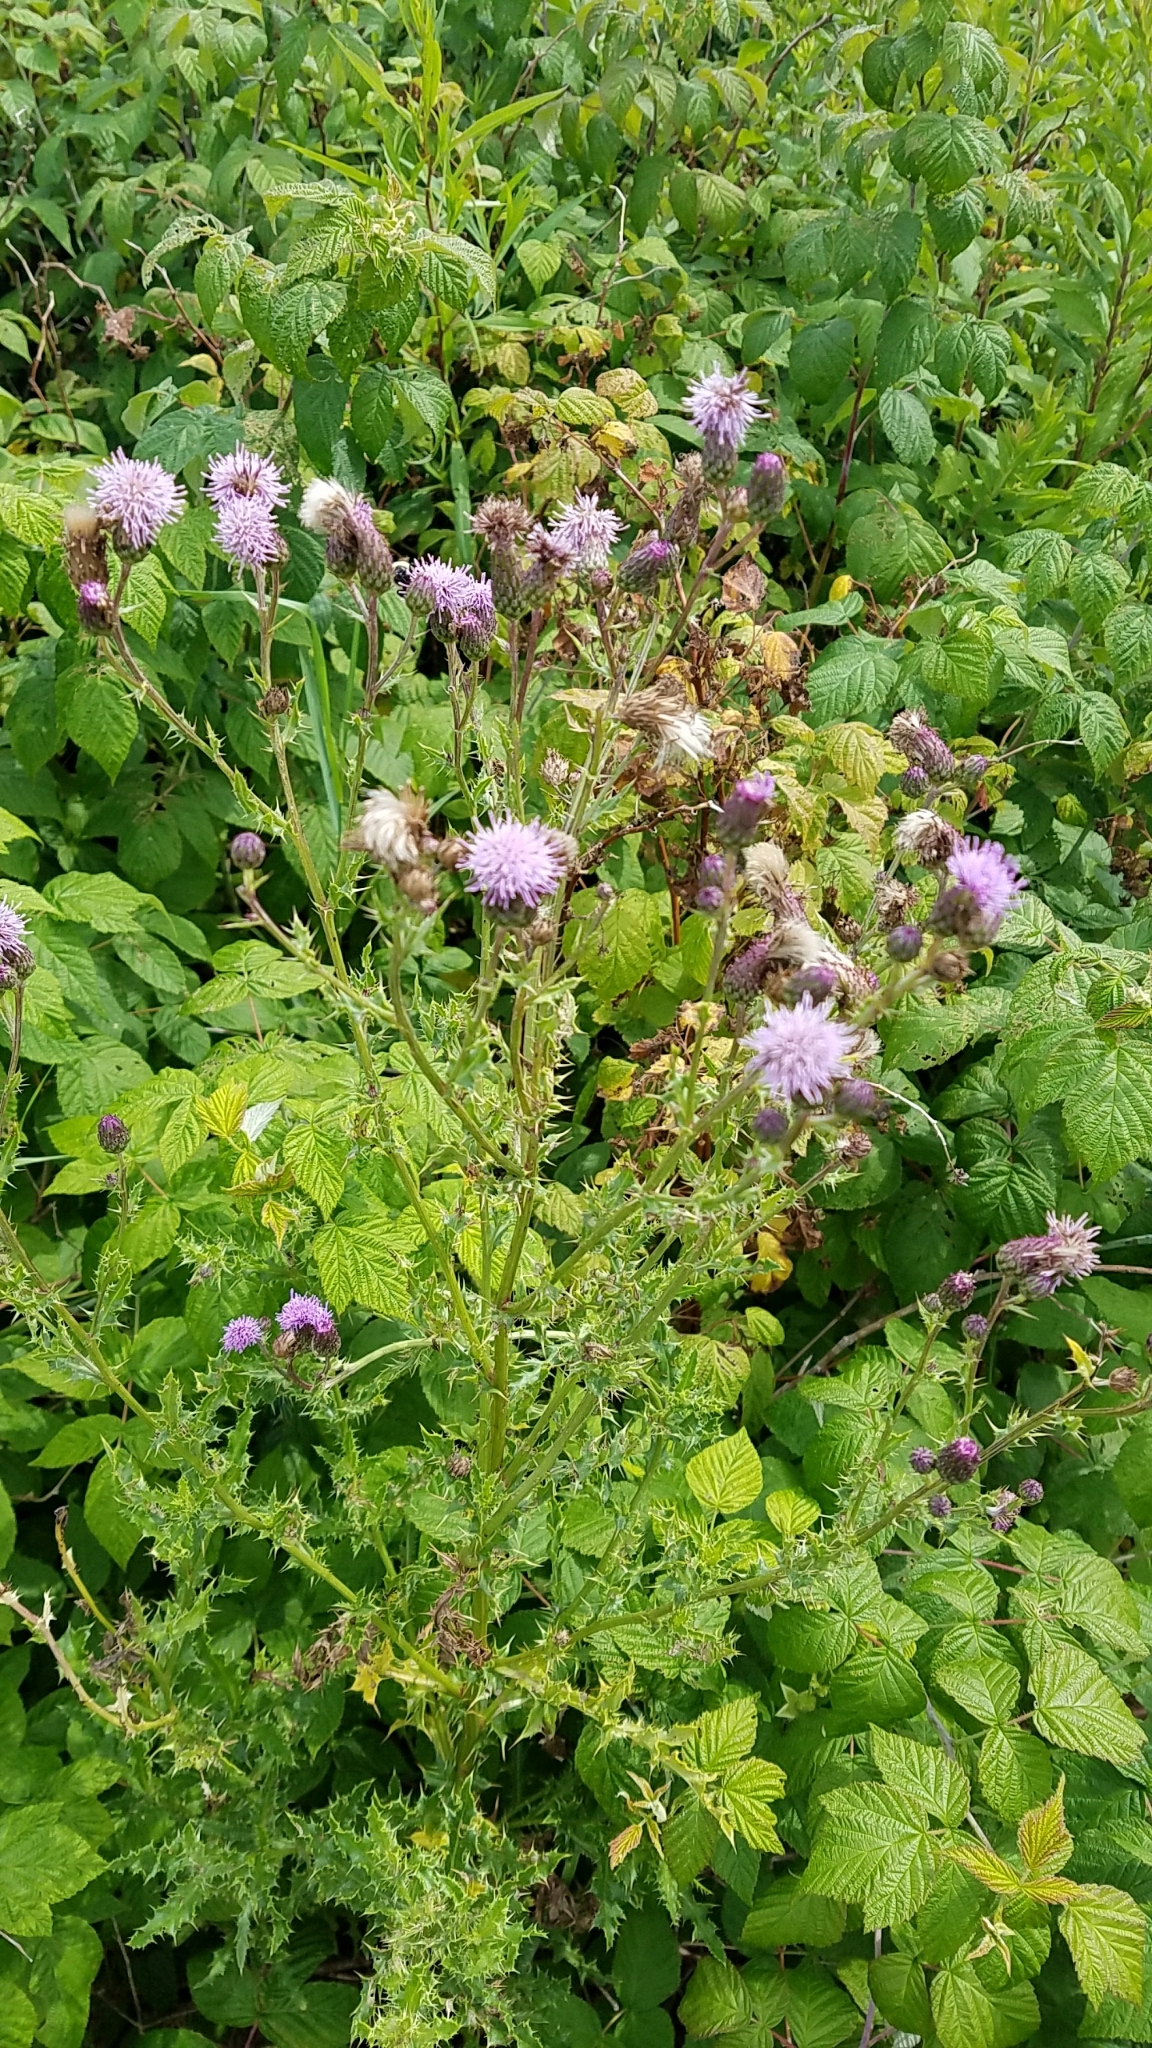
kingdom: Plantae
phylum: Tracheophyta
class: Magnoliopsida
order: Asterales
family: Asteraceae
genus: Cirsium
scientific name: Cirsium arvense
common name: Creeping thistle
